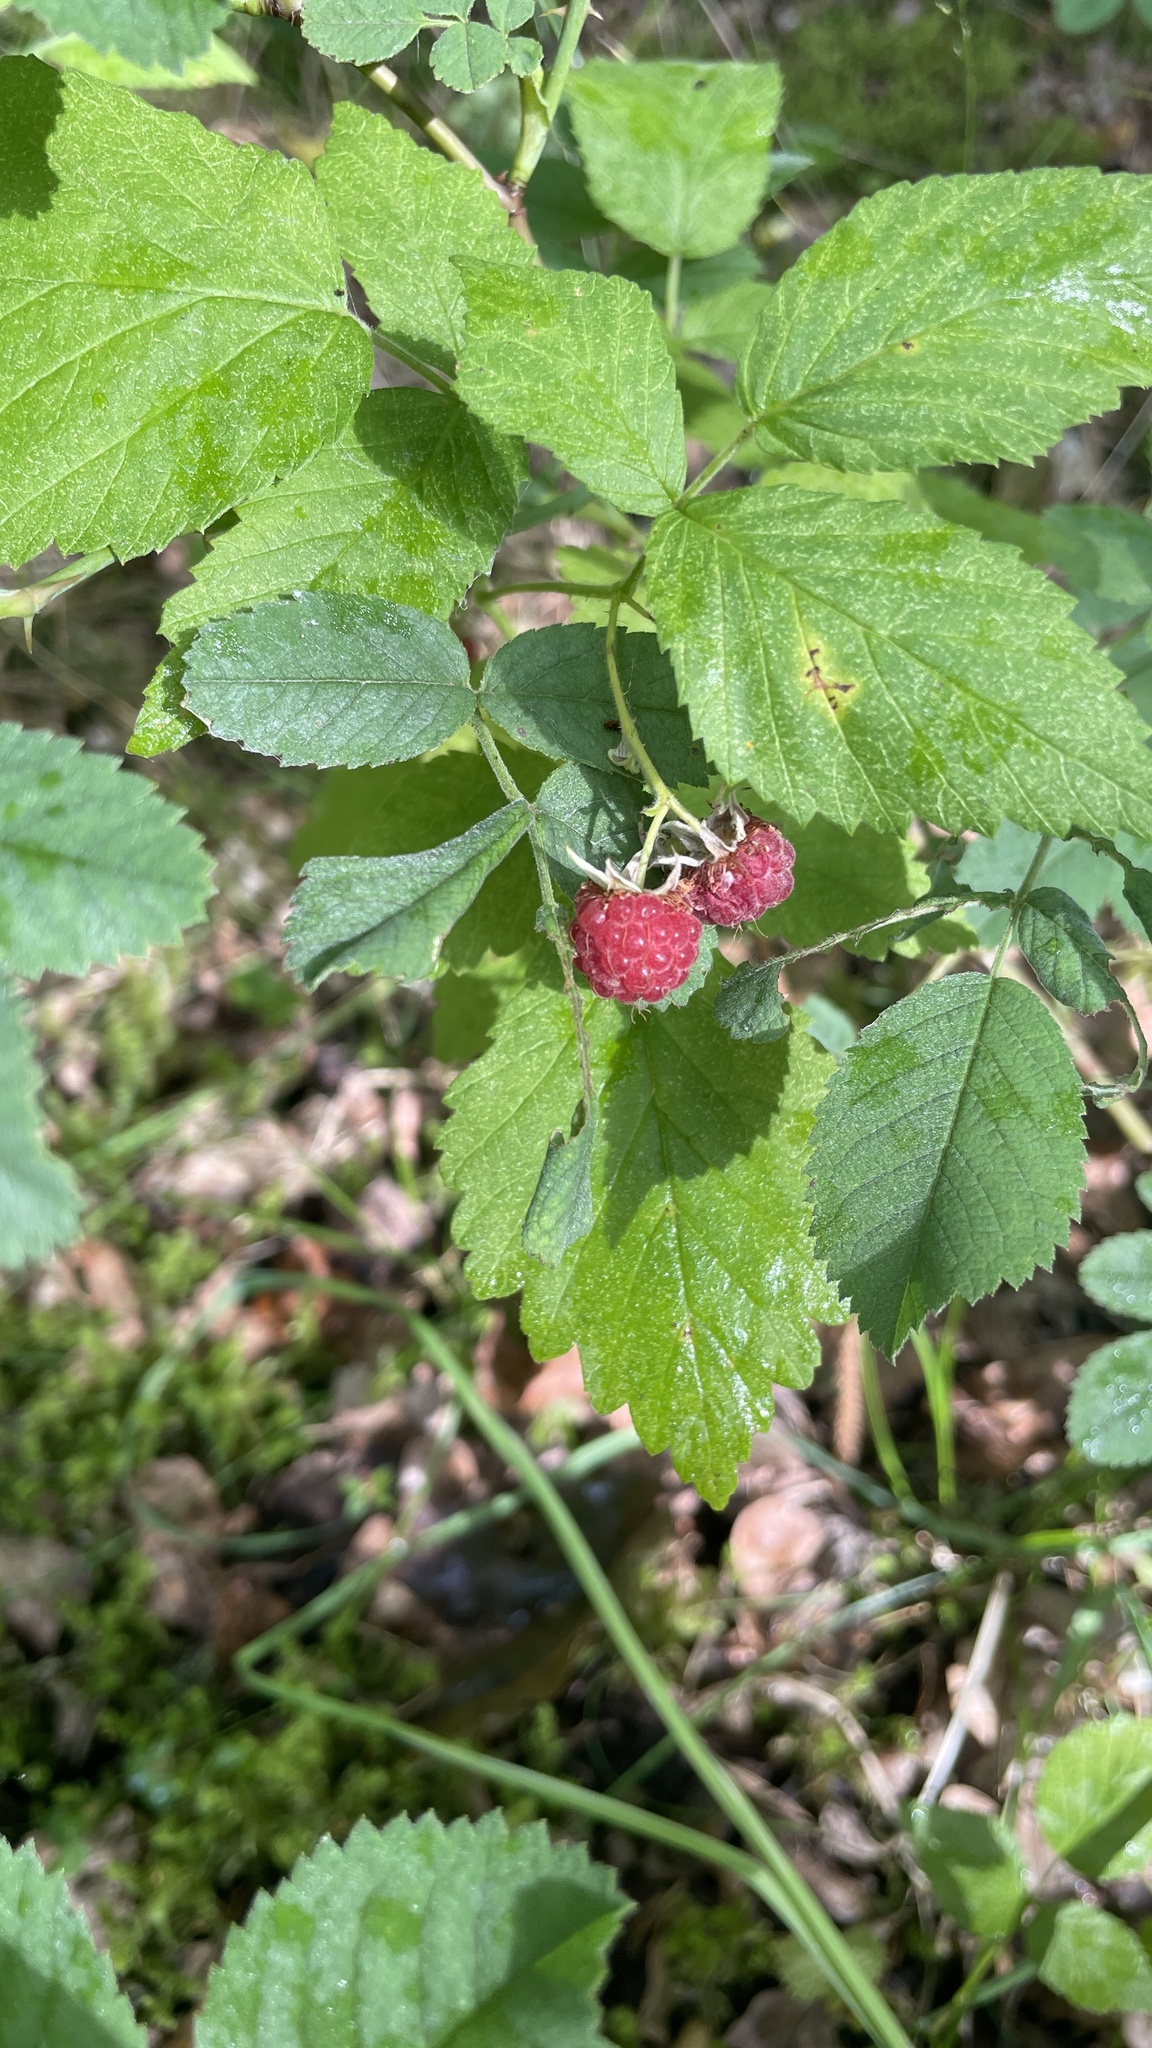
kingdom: Plantae
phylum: Tracheophyta
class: Magnoliopsida
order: Rosales
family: Rosaceae
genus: Rubus
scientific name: Rubus idaeus
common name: Raspberry
